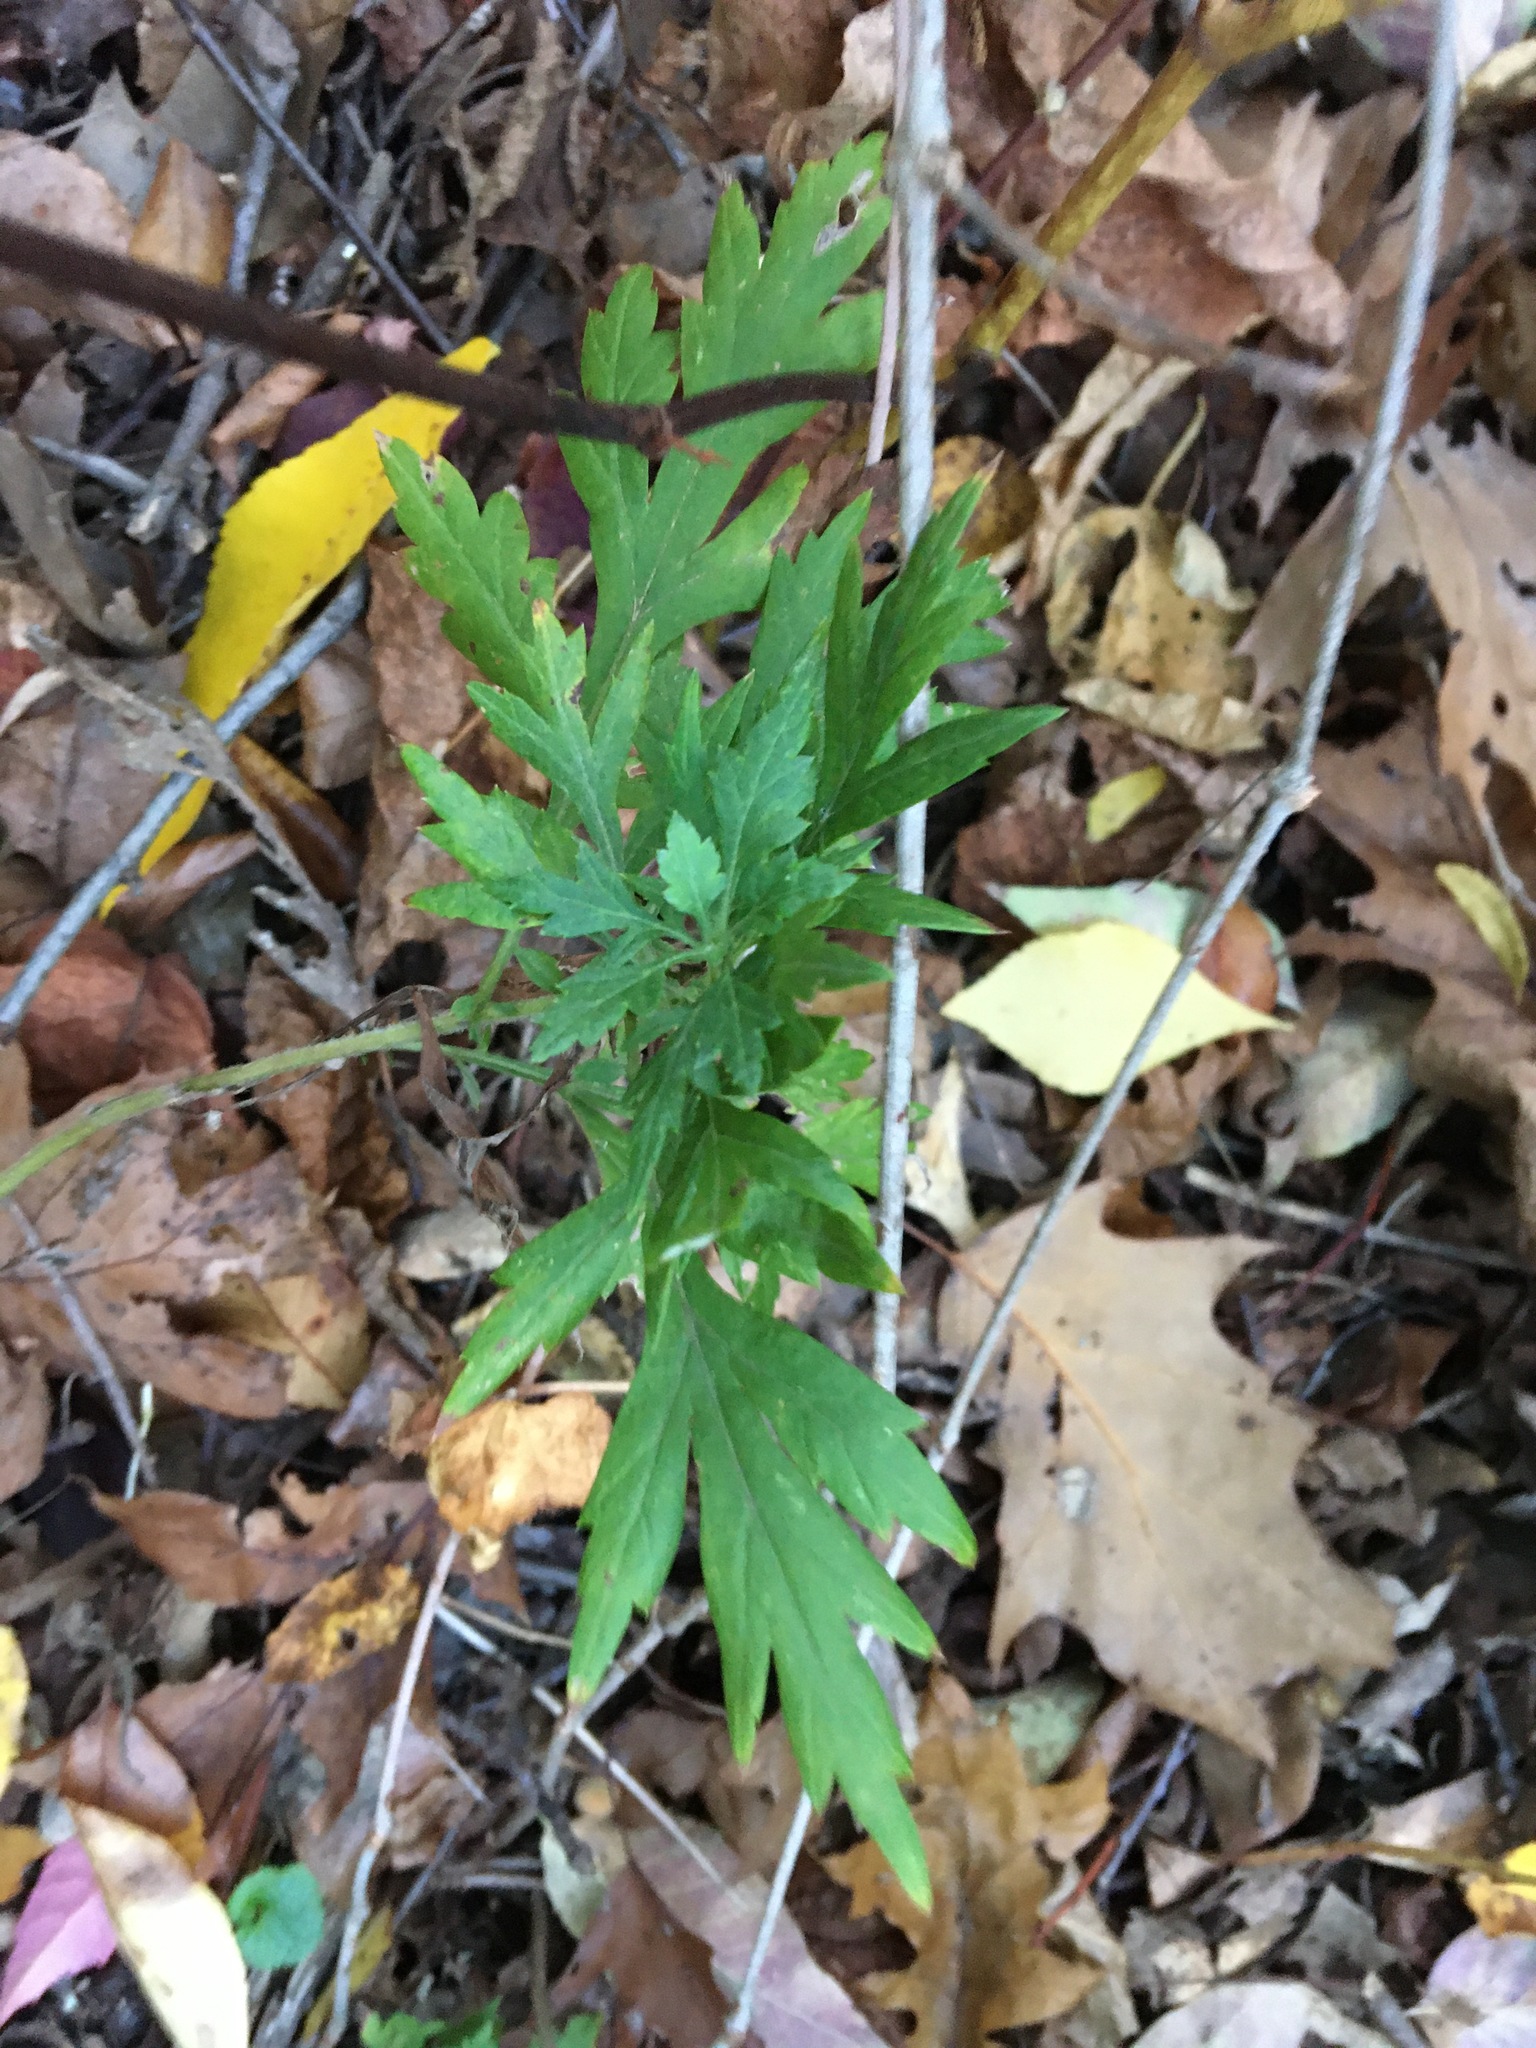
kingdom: Plantae
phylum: Tracheophyta
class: Magnoliopsida
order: Asterales
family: Asteraceae
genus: Artemisia
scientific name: Artemisia vulgaris
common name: Mugwort
